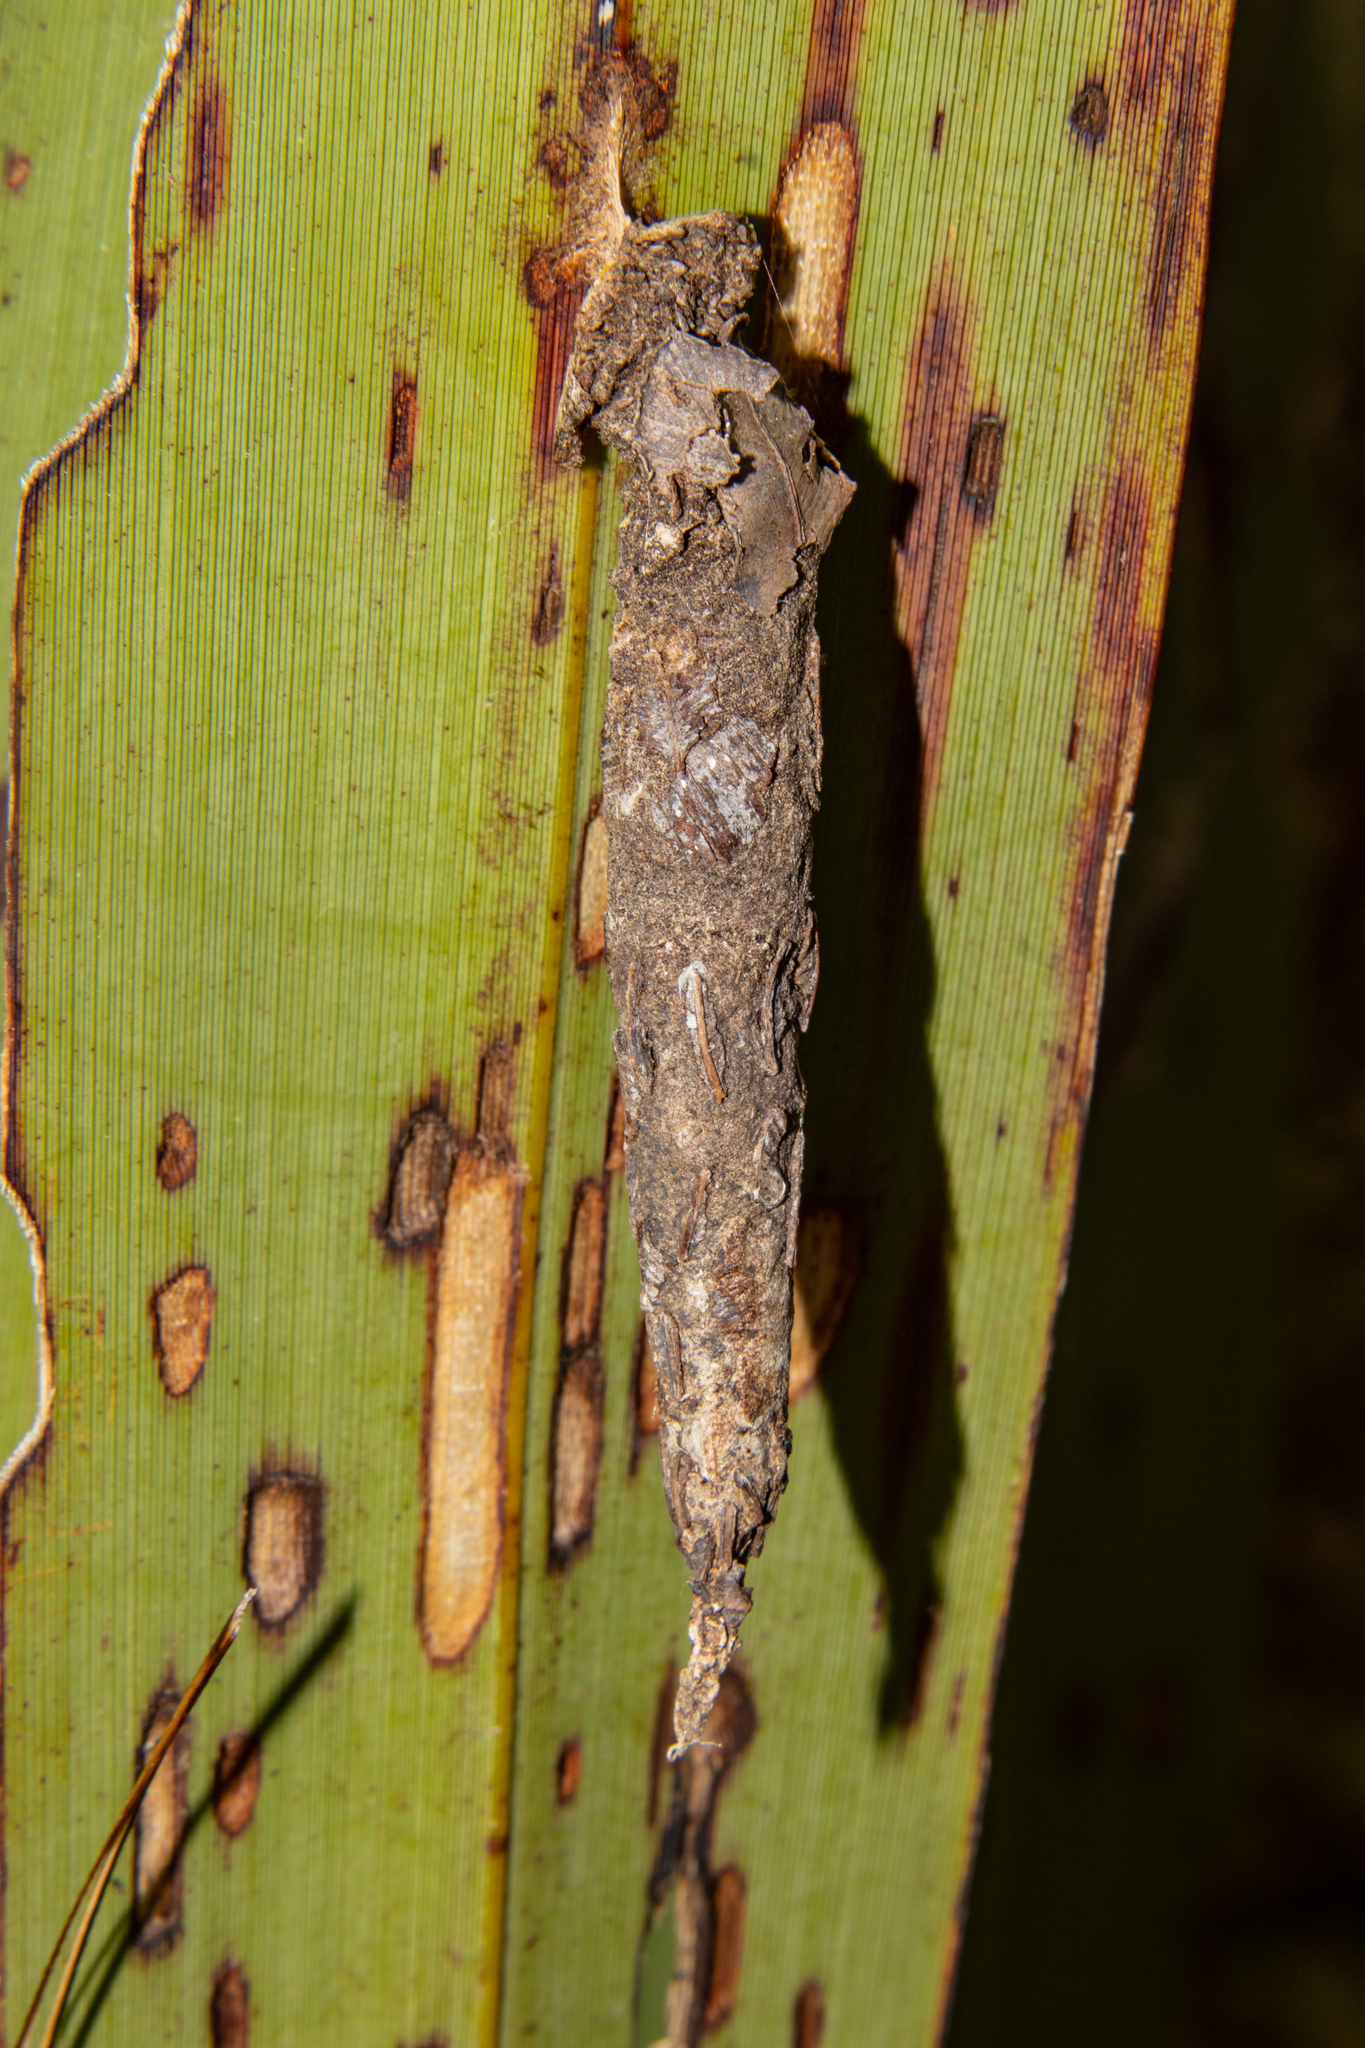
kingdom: Animalia
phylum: Arthropoda
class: Insecta
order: Lepidoptera
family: Psychidae
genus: Liothula
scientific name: Liothula omnivora
